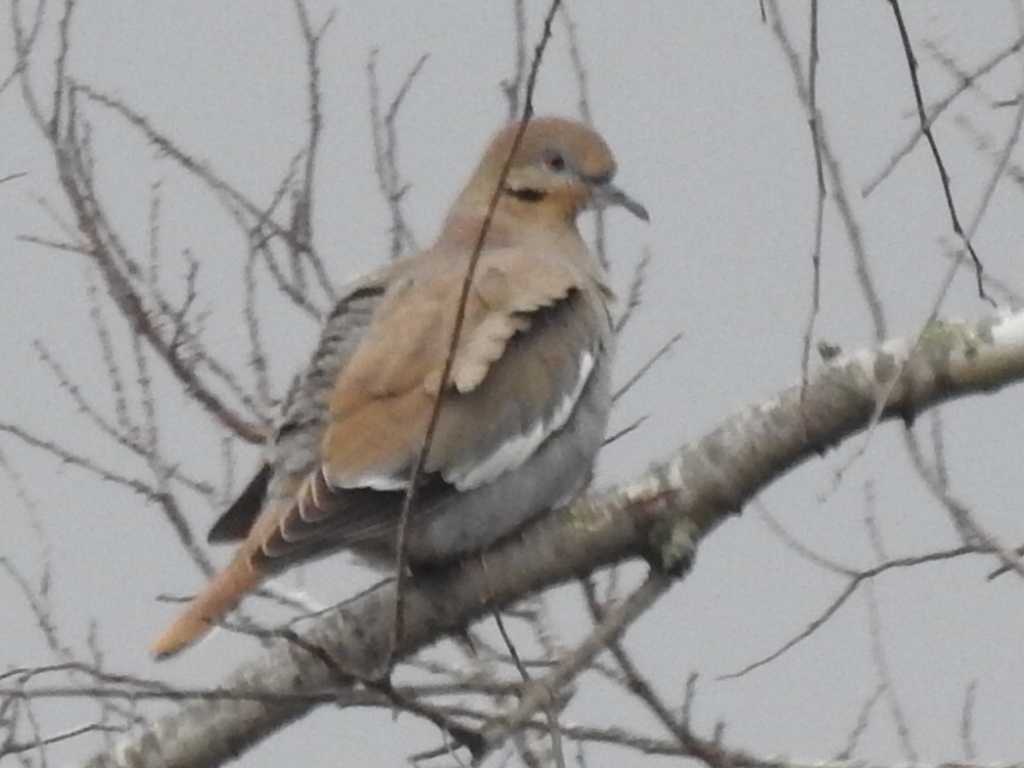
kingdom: Animalia
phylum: Chordata
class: Aves
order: Columbiformes
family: Columbidae
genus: Zenaida
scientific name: Zenaida asiatica
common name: White-winged dove
